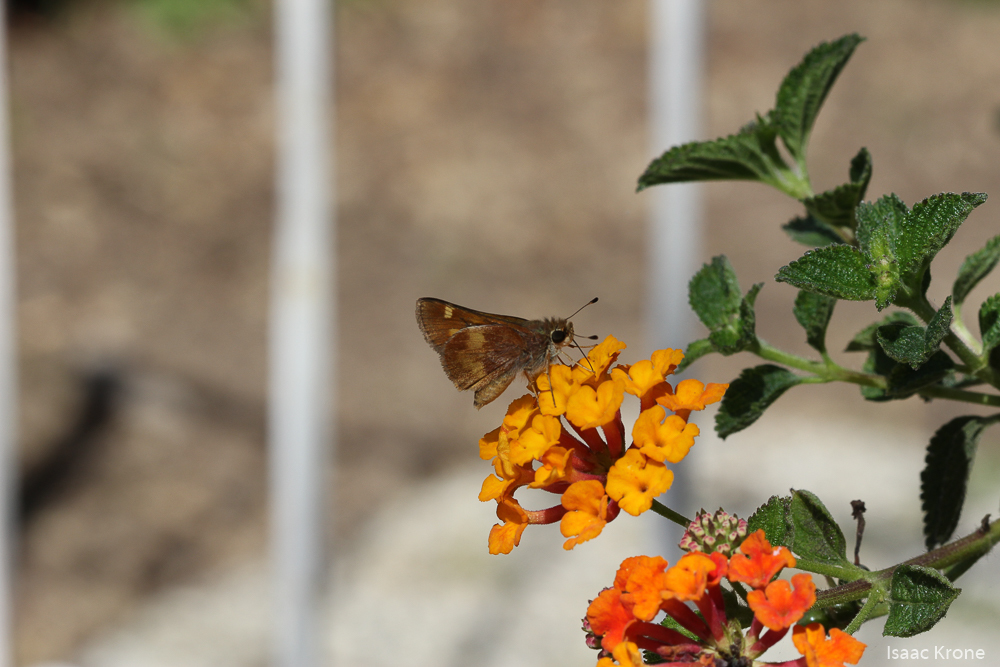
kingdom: Animalia
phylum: Arthropoda
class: Insecta
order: Lepidoptera
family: Hesperiidae
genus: Lon
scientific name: Lon melane
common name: Umber skipper
